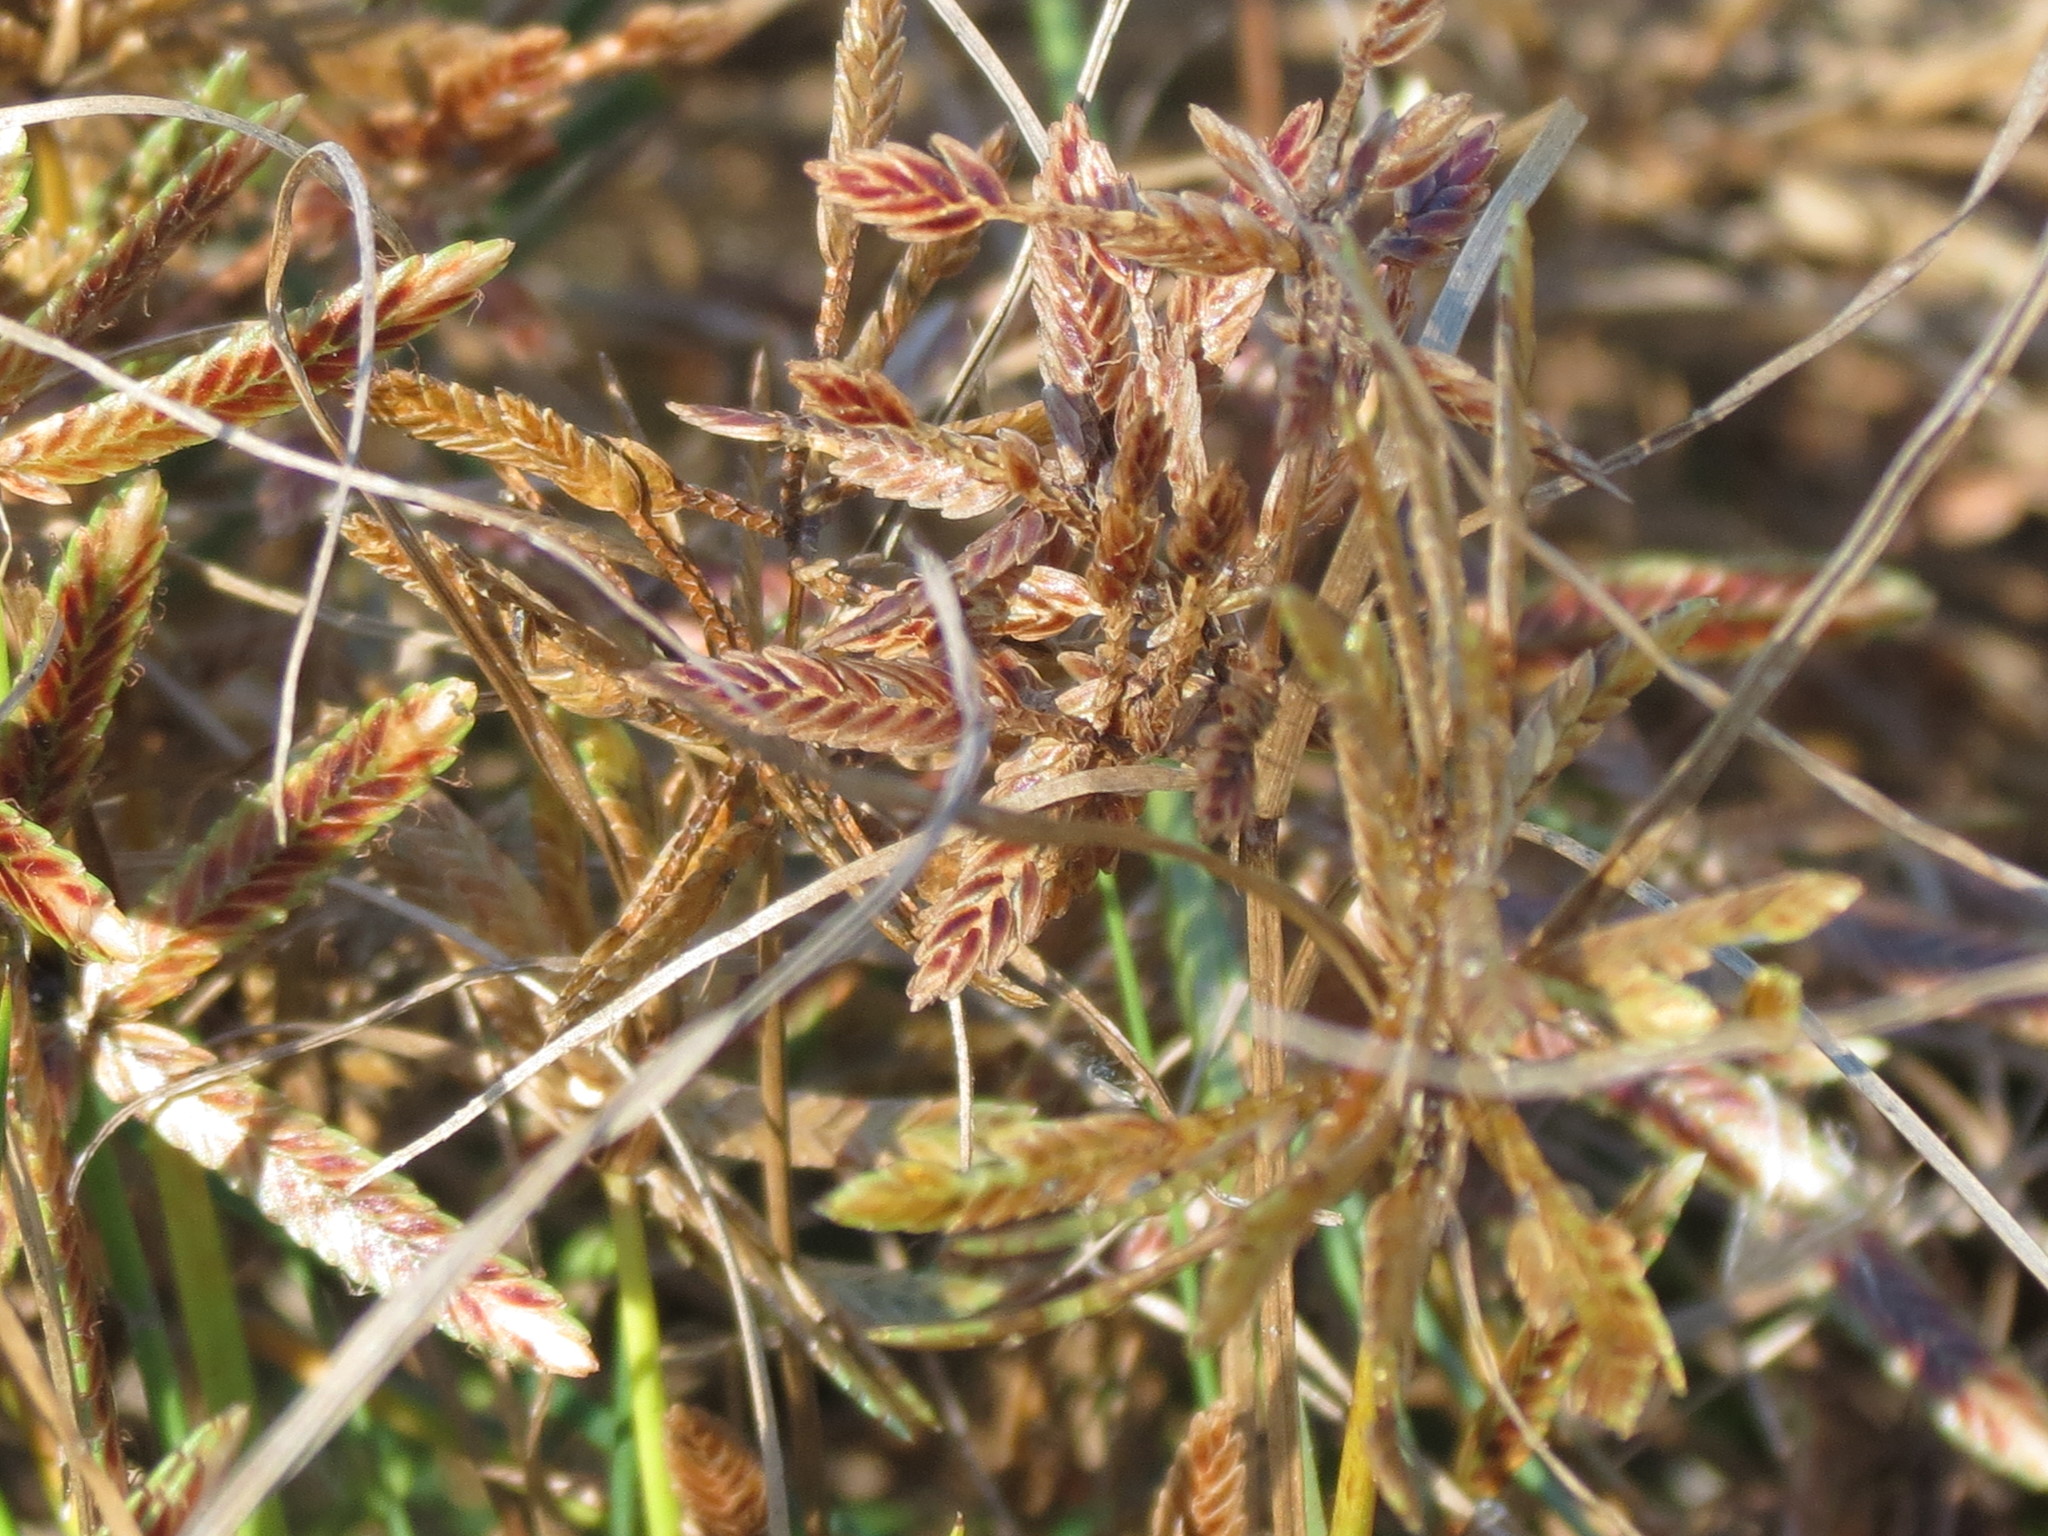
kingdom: Plantae
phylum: Tracheophyta
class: Liliopsida
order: Poales
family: Cyperaceae
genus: Cyperus
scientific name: Cyperus bipartitus
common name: Brook flatsedge
